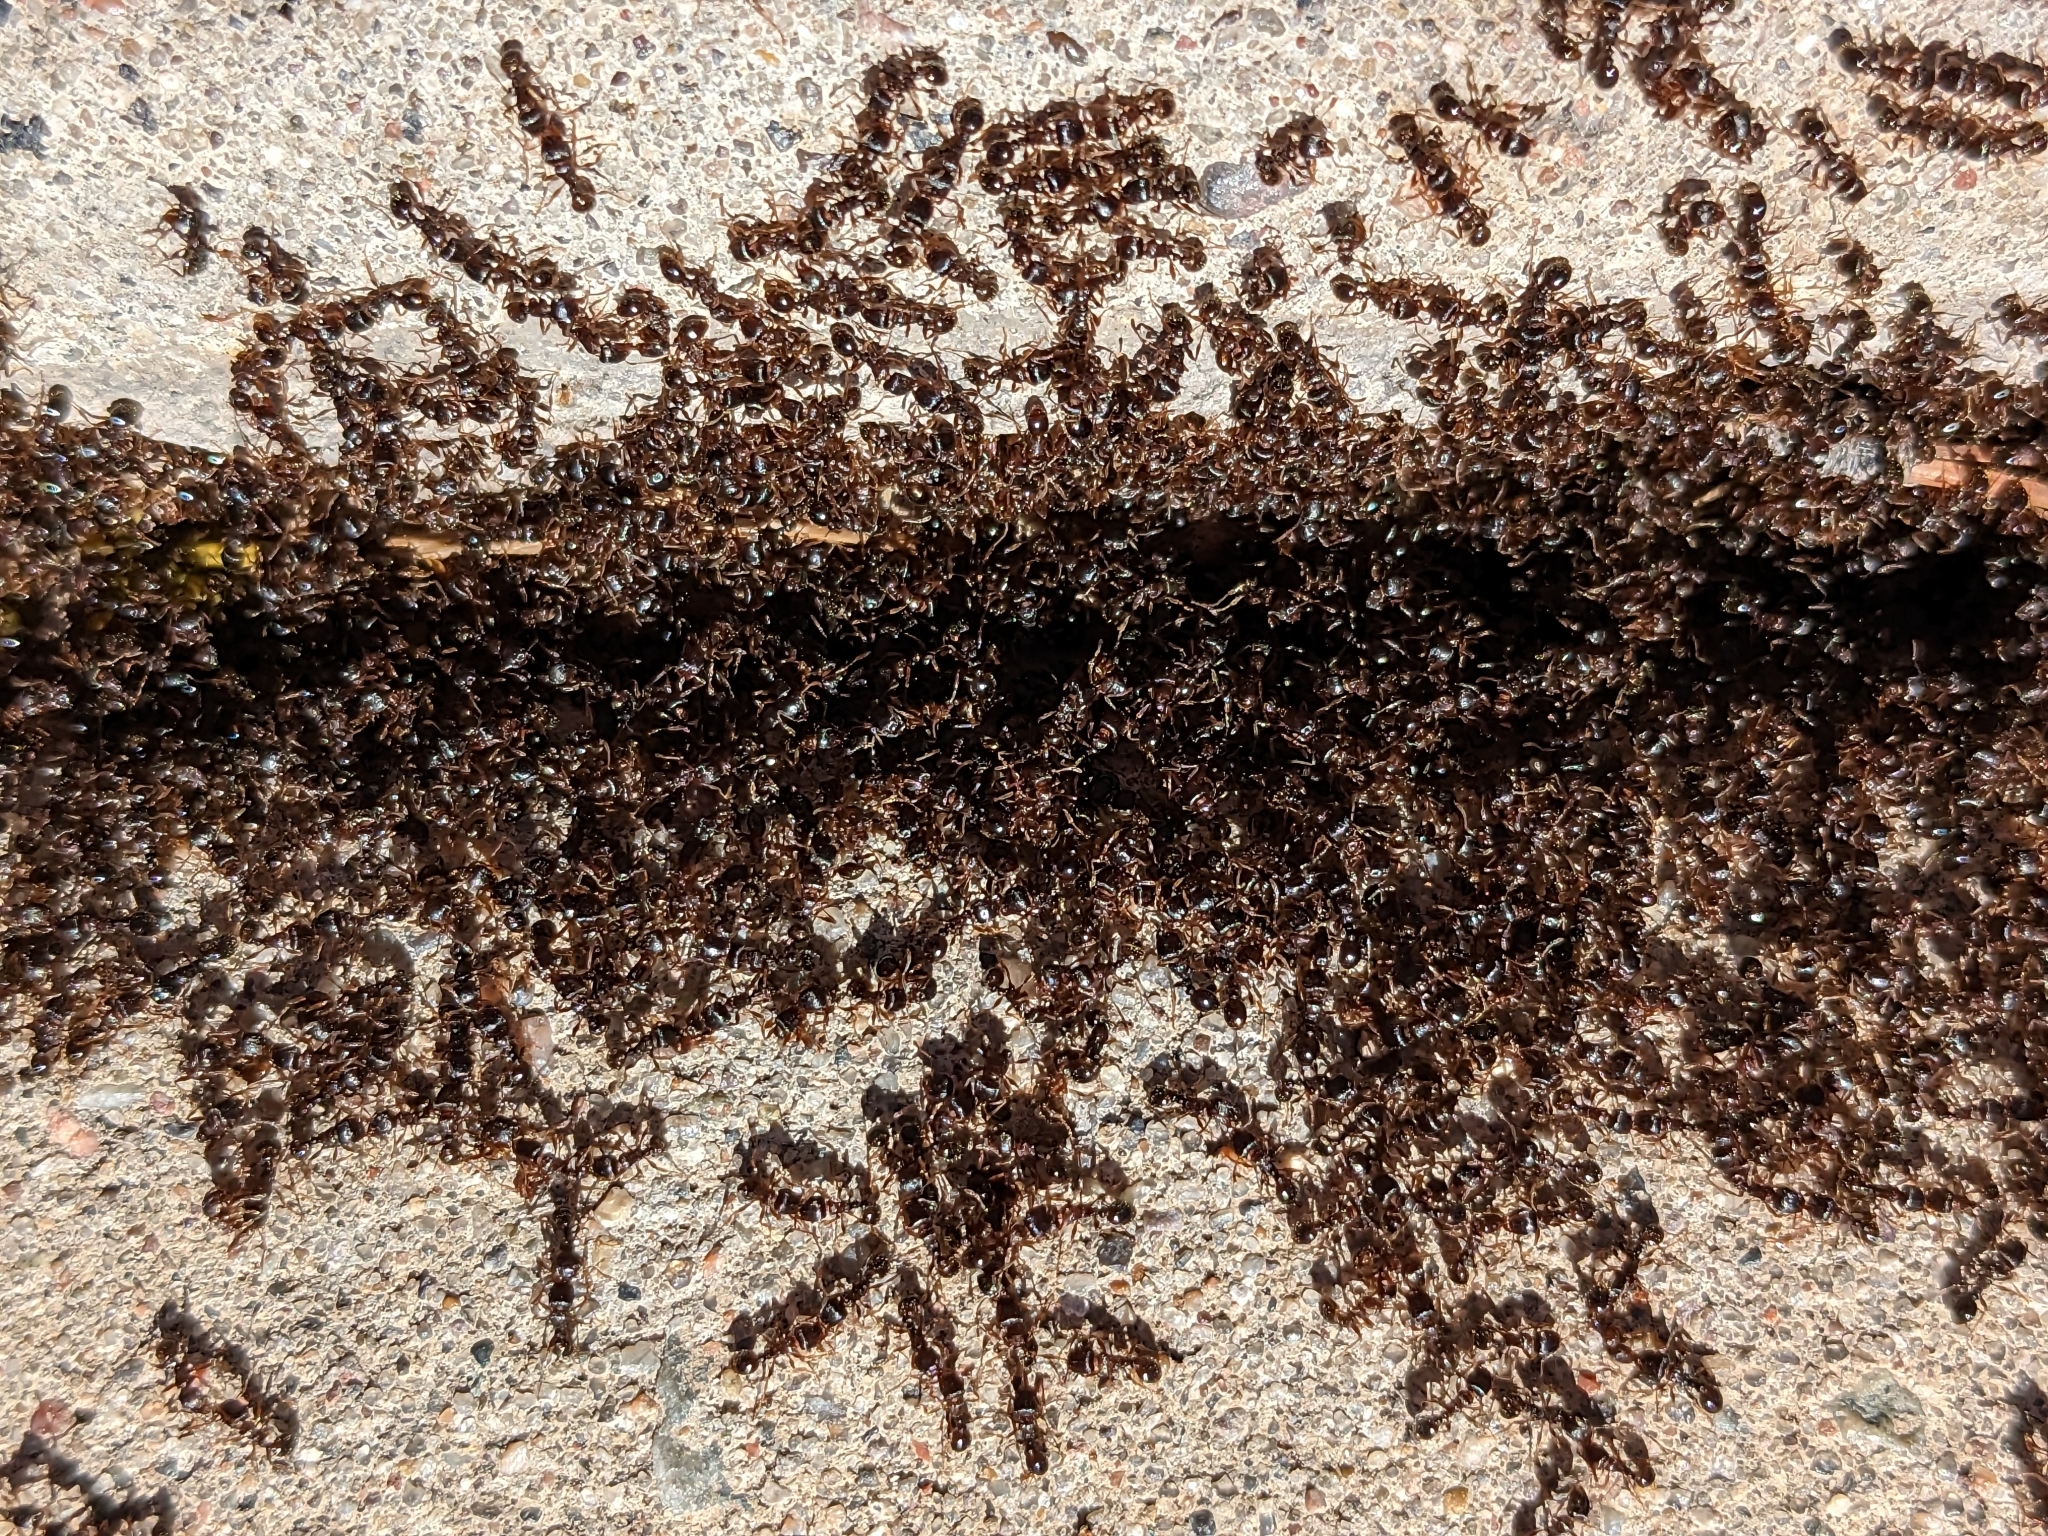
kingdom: Animalia
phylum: Arthropoda
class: Insecta
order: Hymenoptera
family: Formicidae
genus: Tetramorium
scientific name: Tetramorium immigrans
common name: Pavement ant
